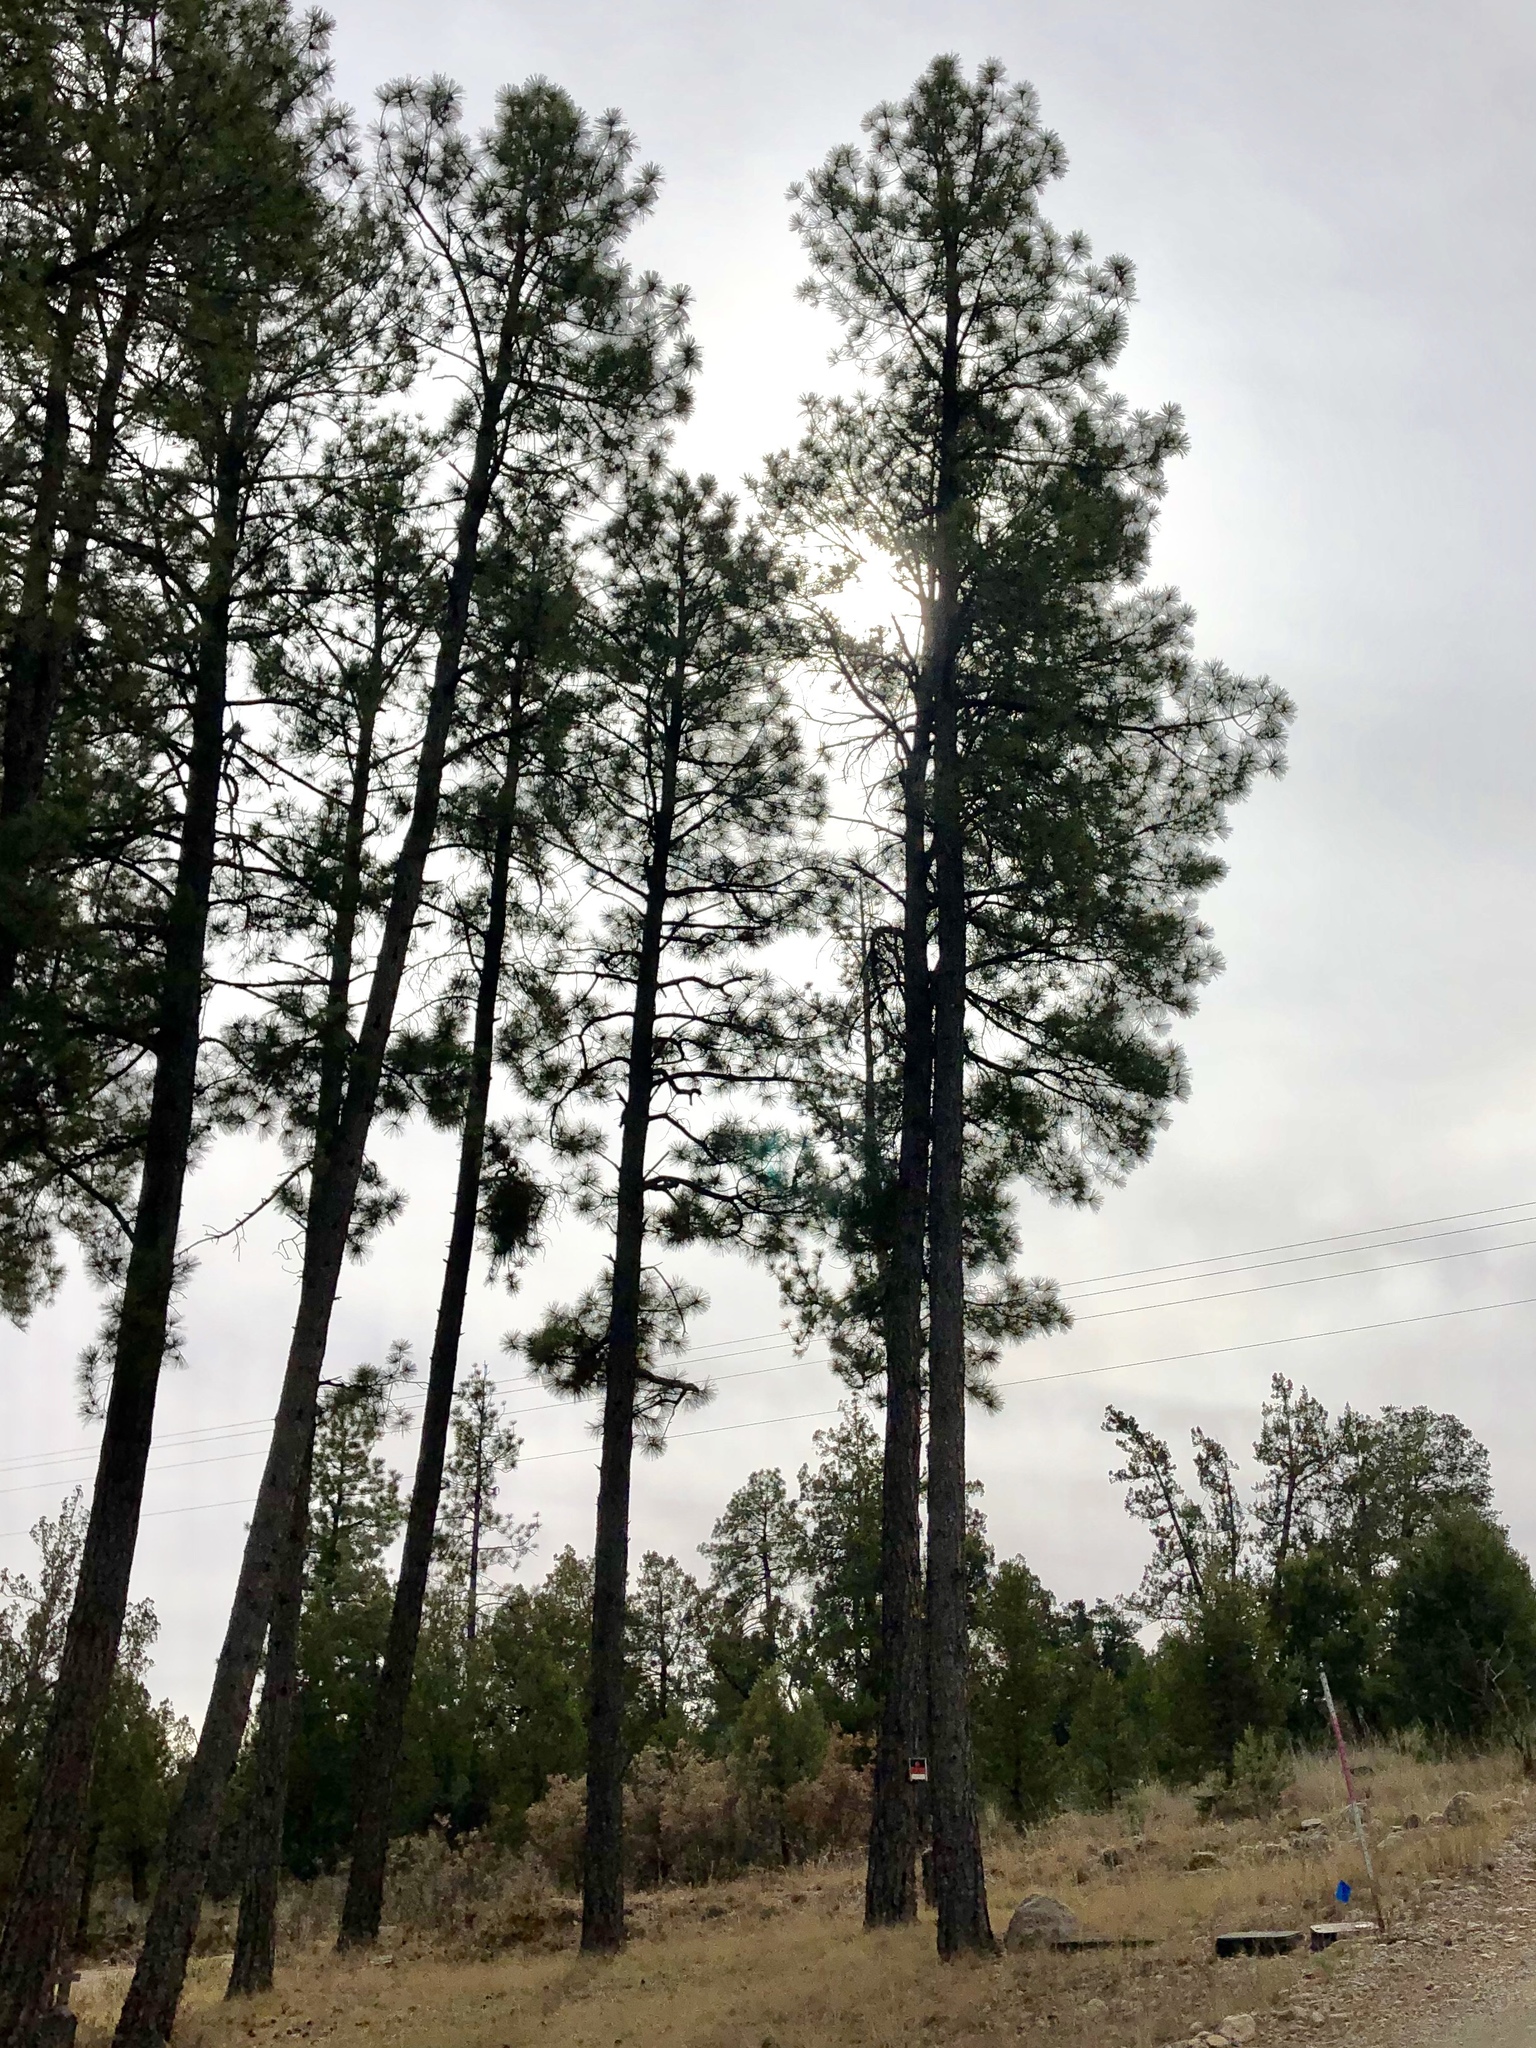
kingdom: Plantae
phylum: Tracheophyta
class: Pinopsida
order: Pinales
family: Pinaceae
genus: Pinus
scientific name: Pinus ponderosa
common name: Western yellow-pine
